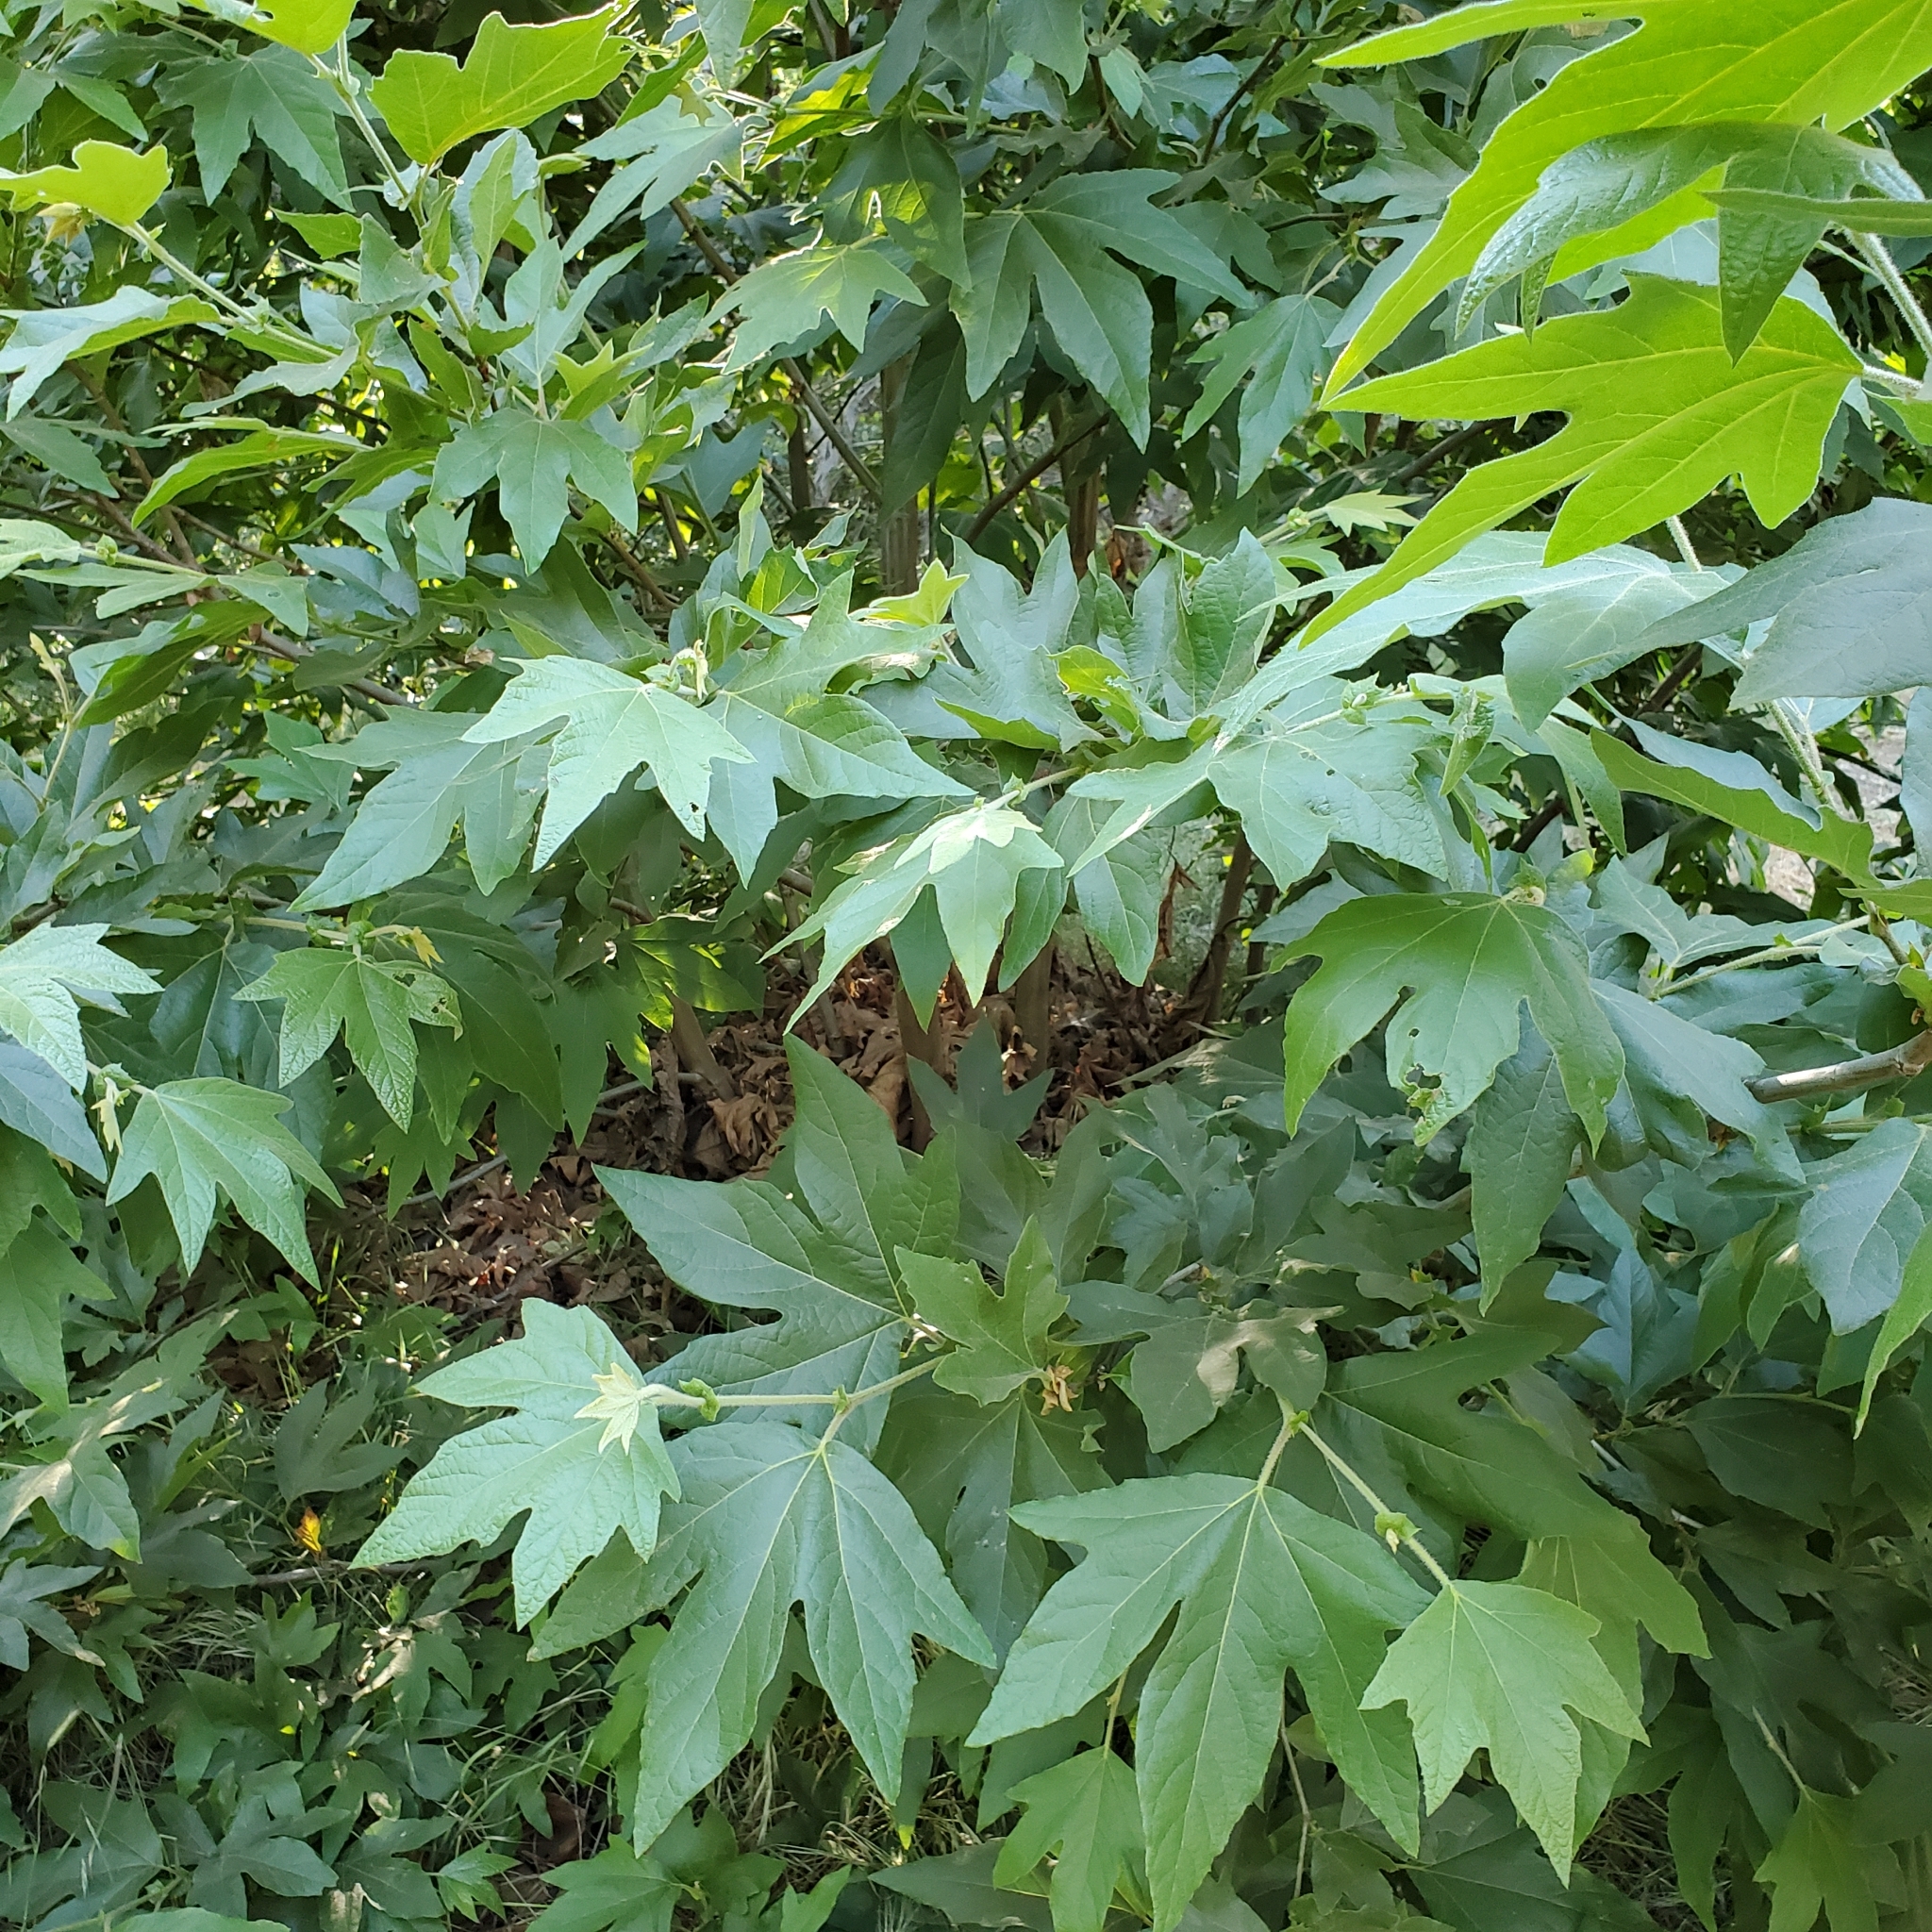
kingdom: Plantae
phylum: Tracheophyta
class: Magnoliopsida
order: Proteales
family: Platanaceae
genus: Platanus
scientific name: Platanus racemosa
